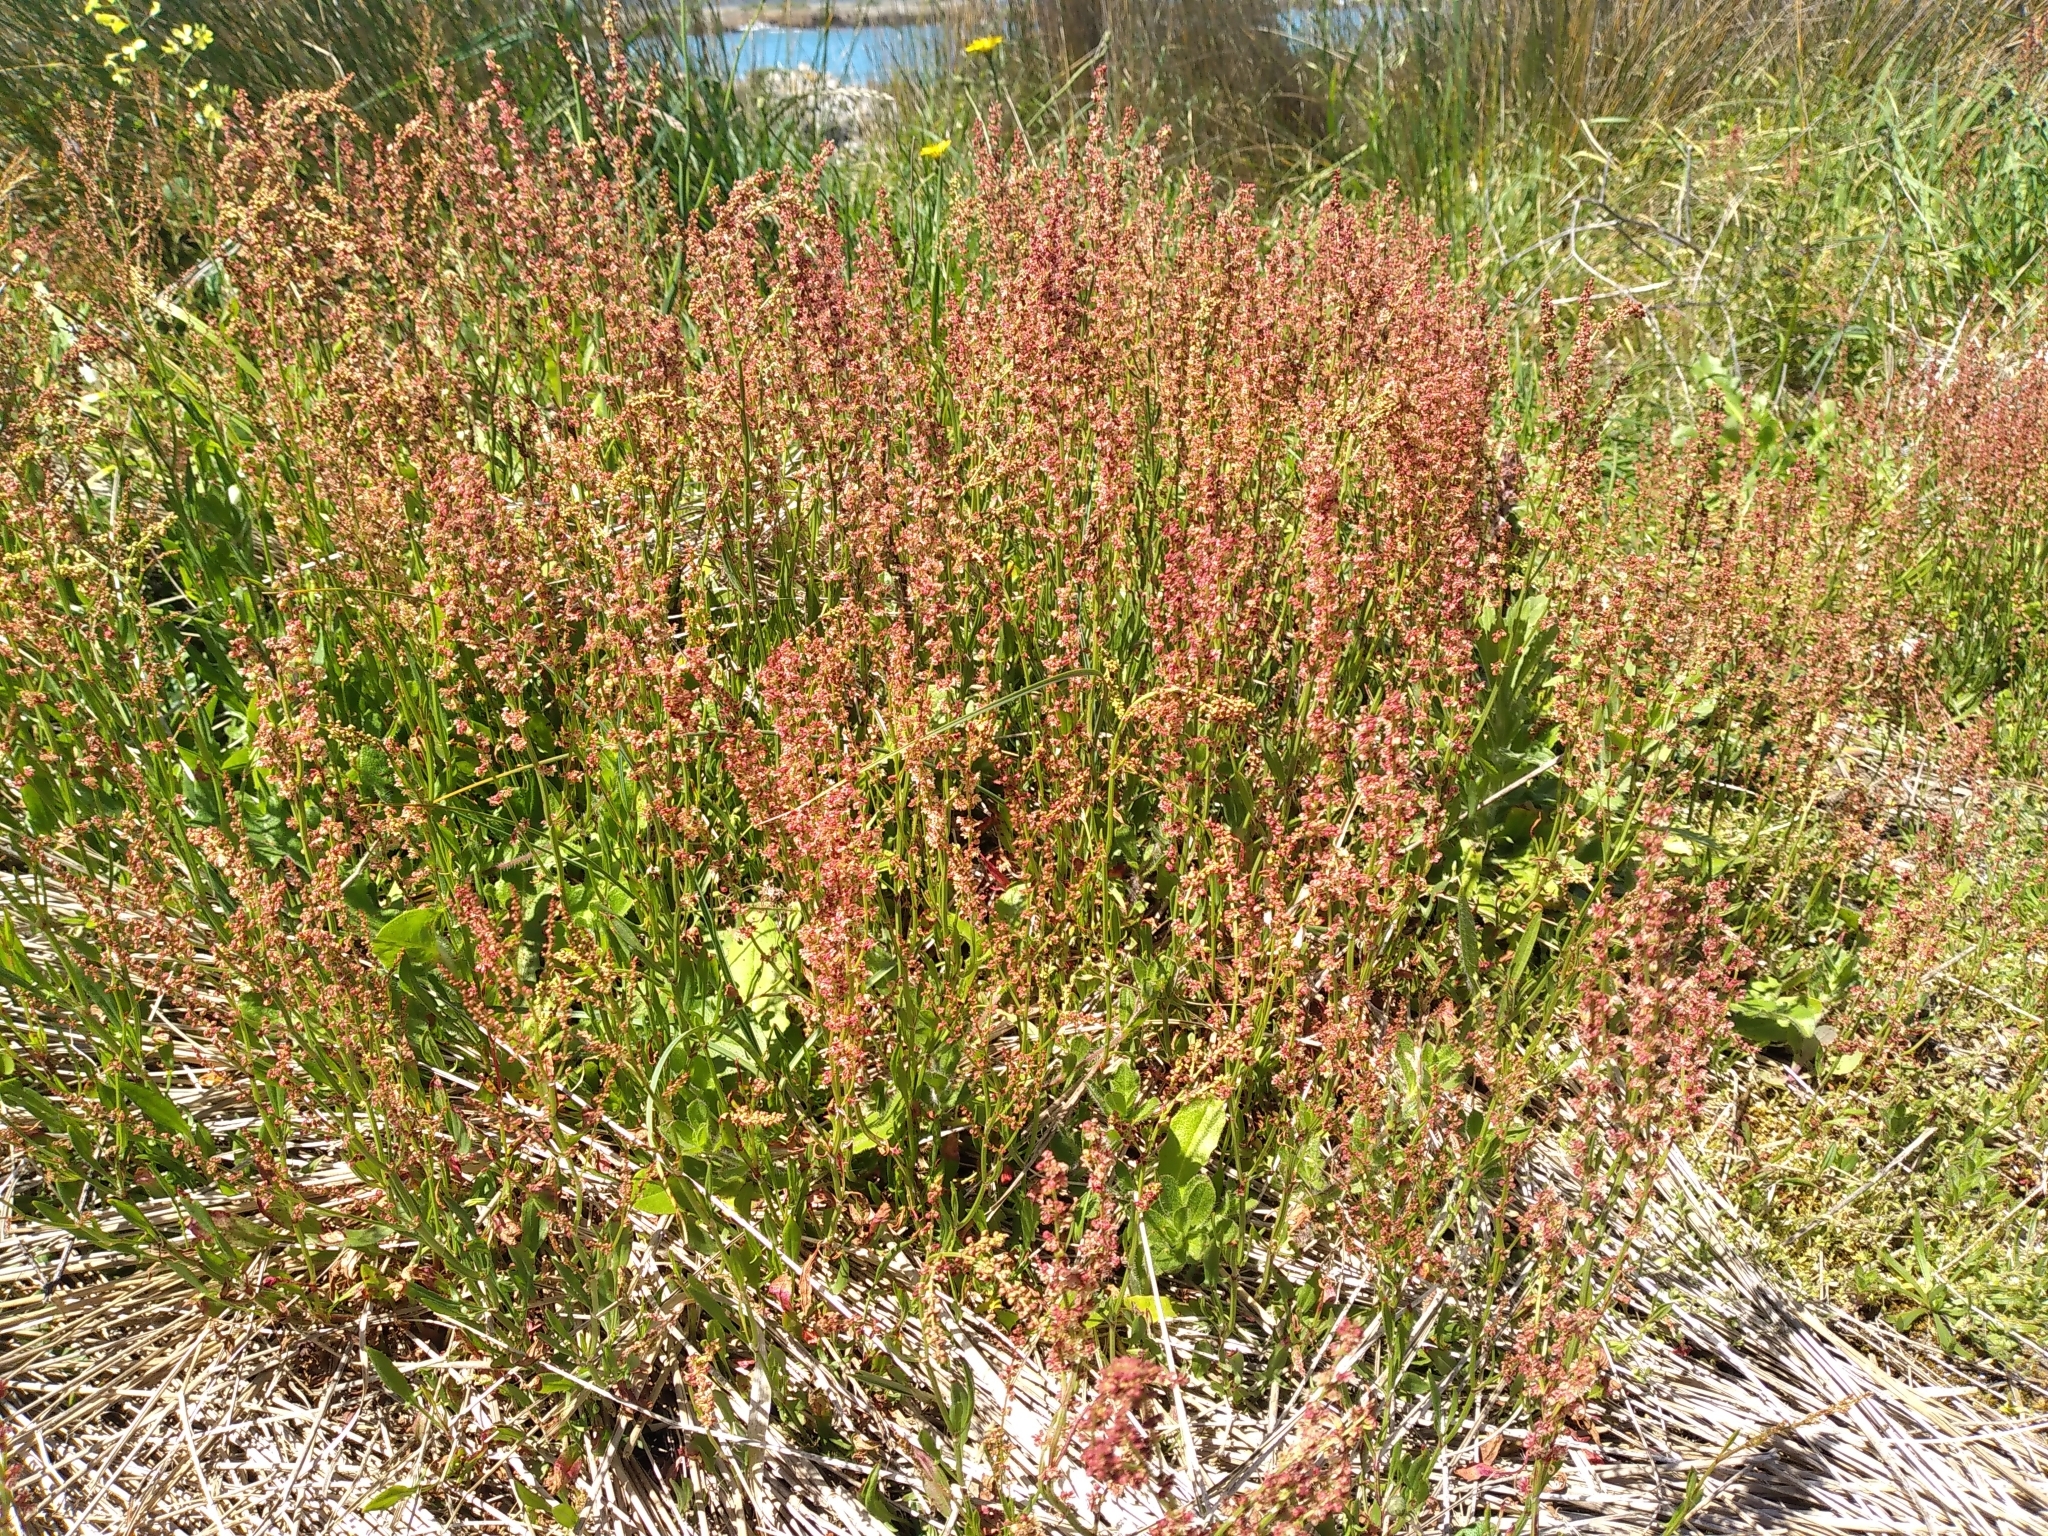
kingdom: Plantae
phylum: Tracheophyta
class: Magnoliopsida
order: Caryophyllales
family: Polygonaceae
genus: Rumex
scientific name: Rumex acetosella
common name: Common sheep sorrel
